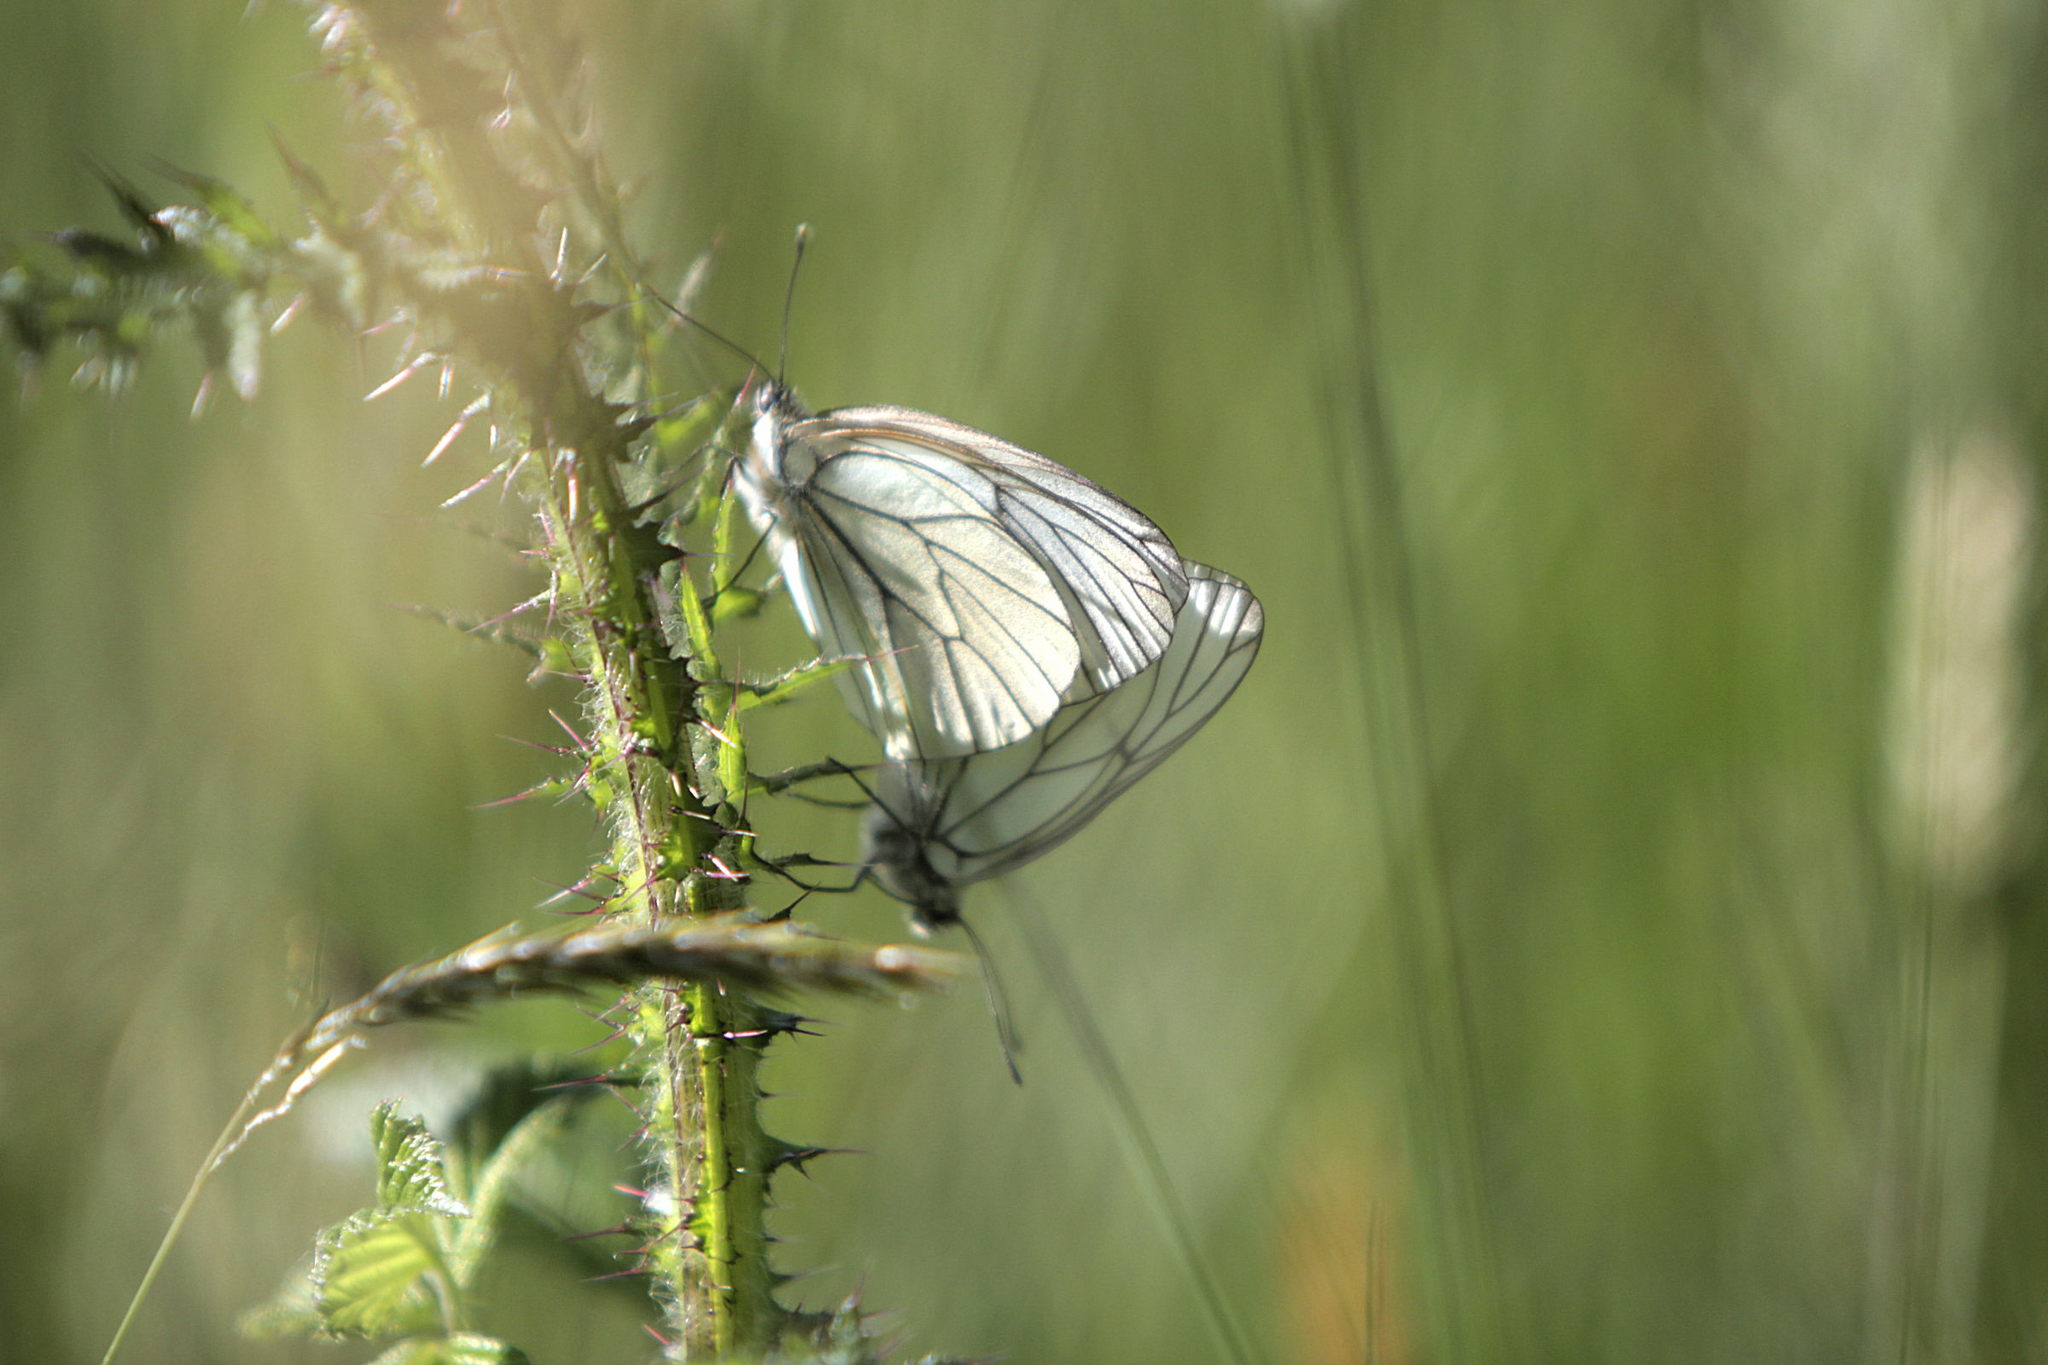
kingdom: Animalia
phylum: Arthropoda
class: Insecta
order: Lepidoptera
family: Pieridae
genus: Aporia
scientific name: Aporia crataegi
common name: Black-veined white
